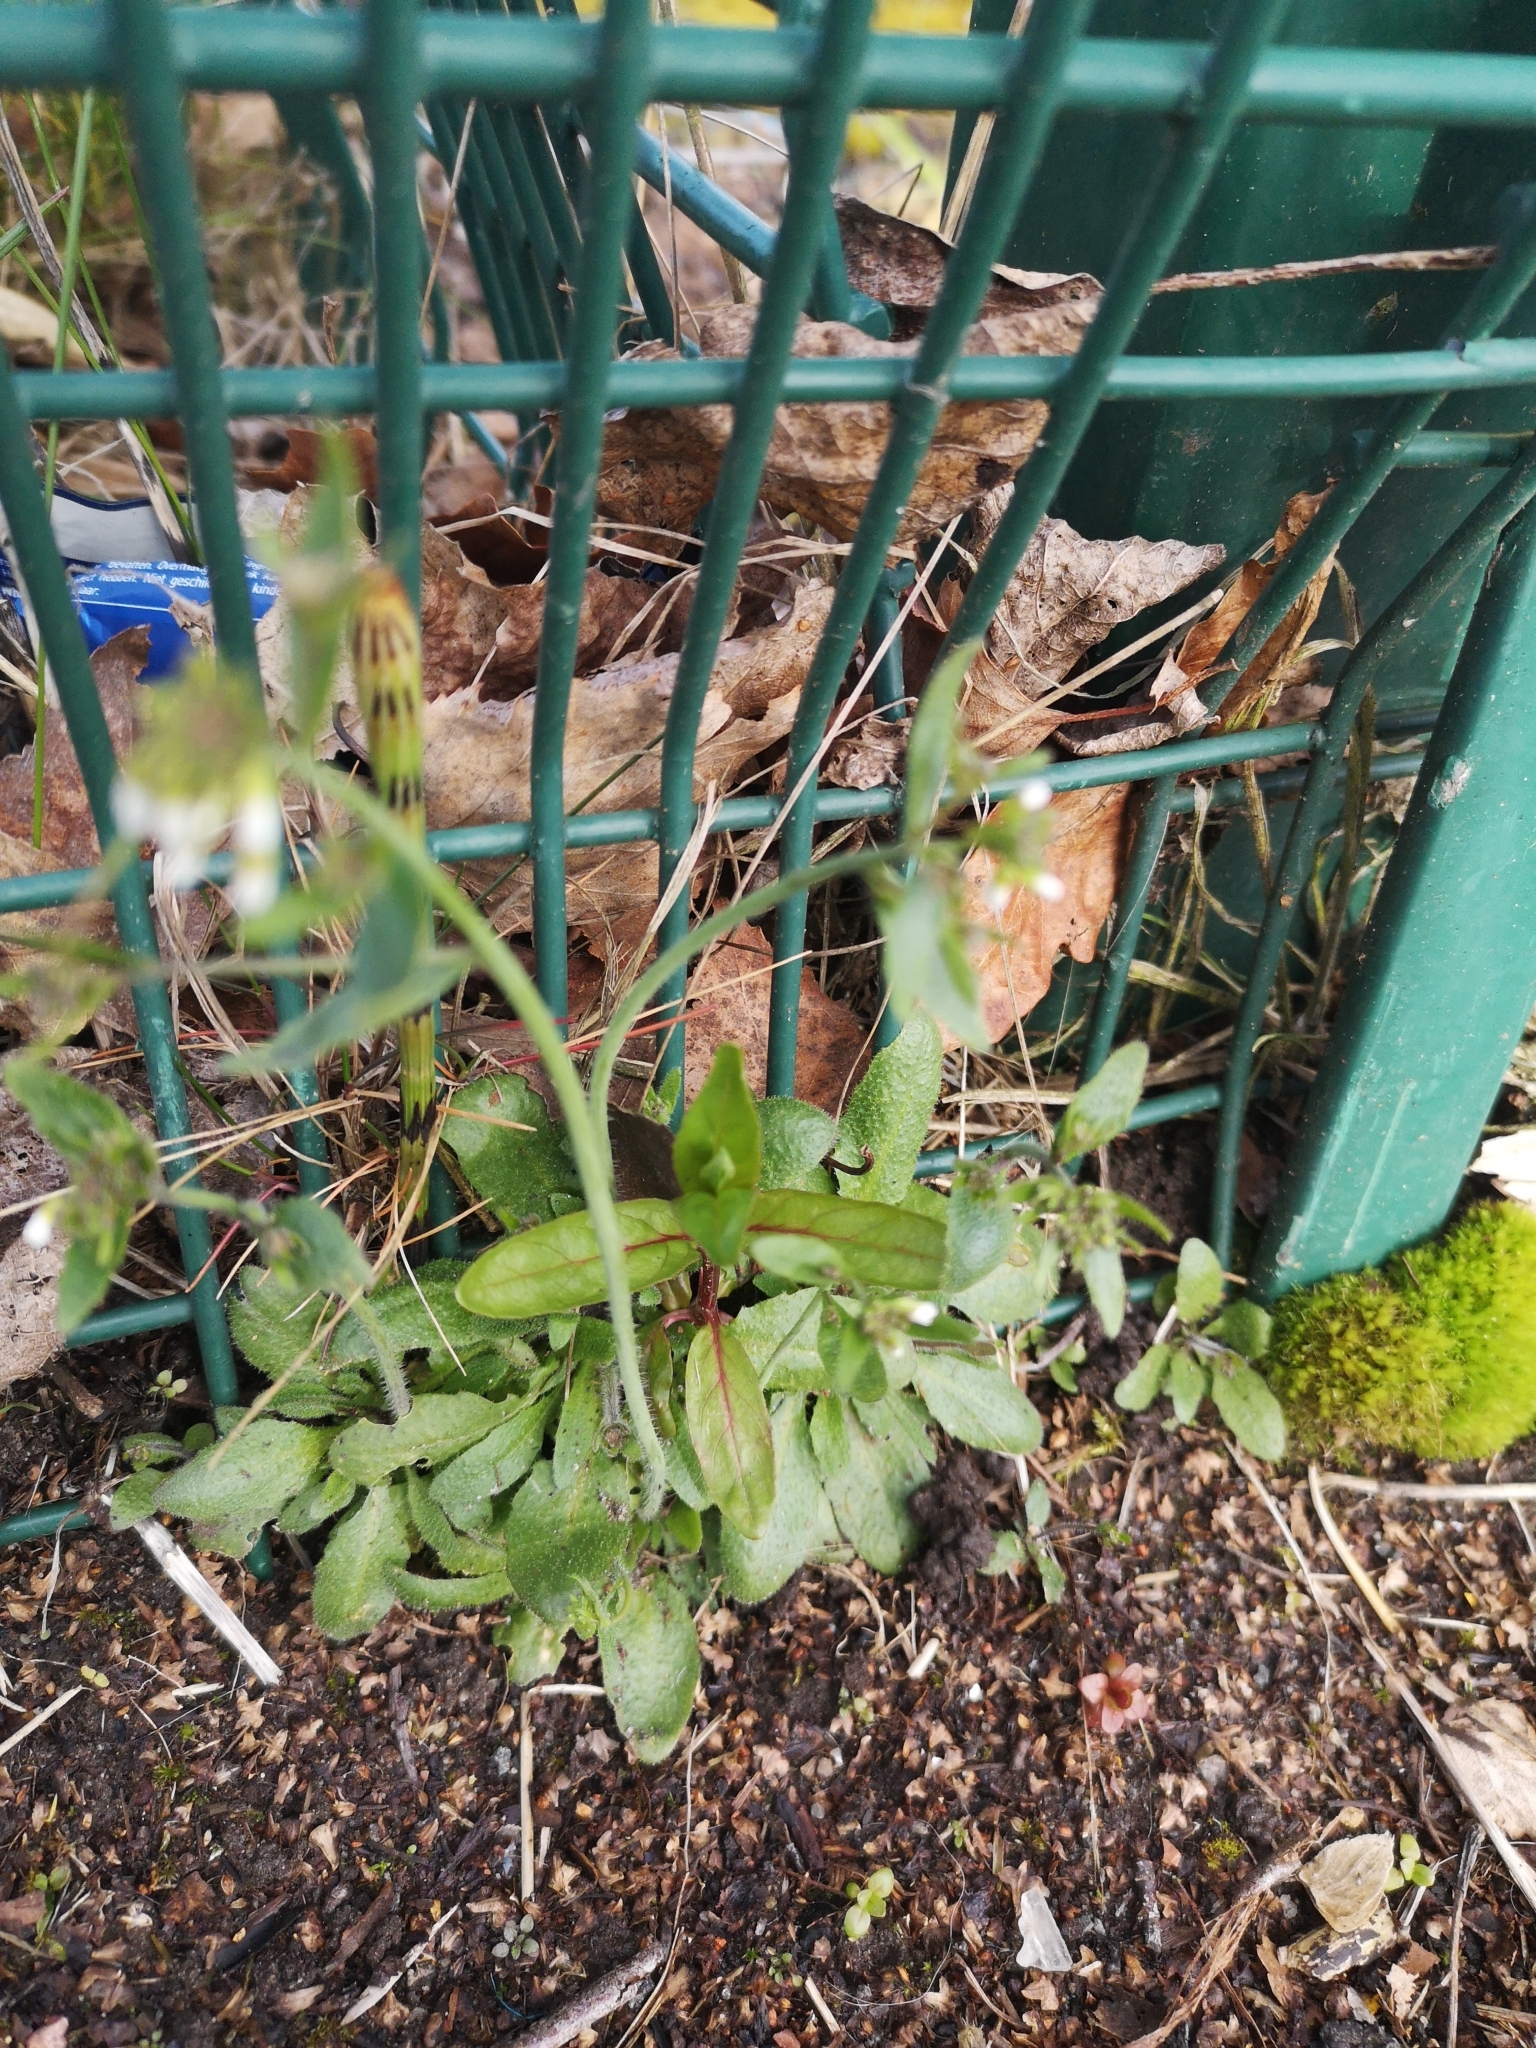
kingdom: Plantae
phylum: Tracheophyta
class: Magnoliopsida
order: Brassicales
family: Brassicaceae
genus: Arabidopsis
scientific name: Arabidopsis thaliana
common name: Thale cress
